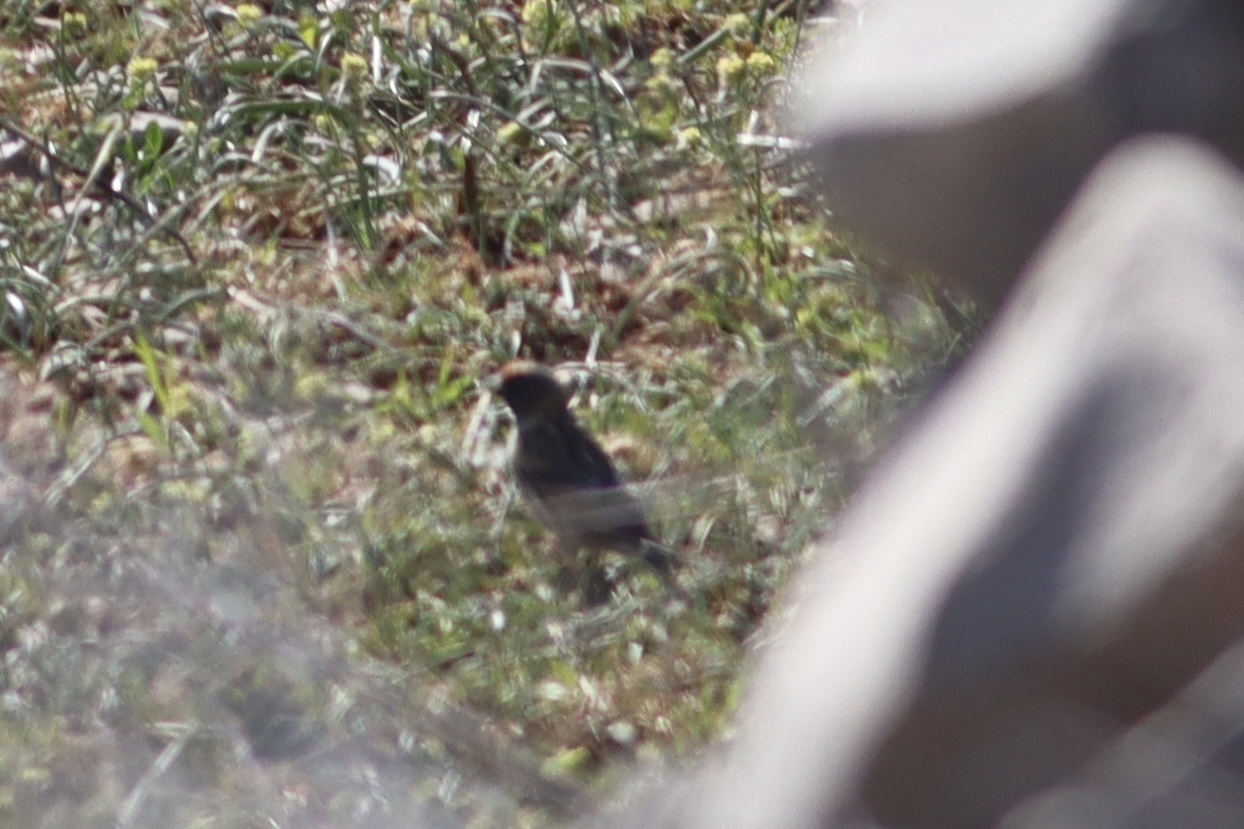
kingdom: Animalia
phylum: Chordata
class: Aves
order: Passeriformes
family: Fringillidae
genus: Serinus
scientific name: Serinus pusillus
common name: Red-fronted serin
